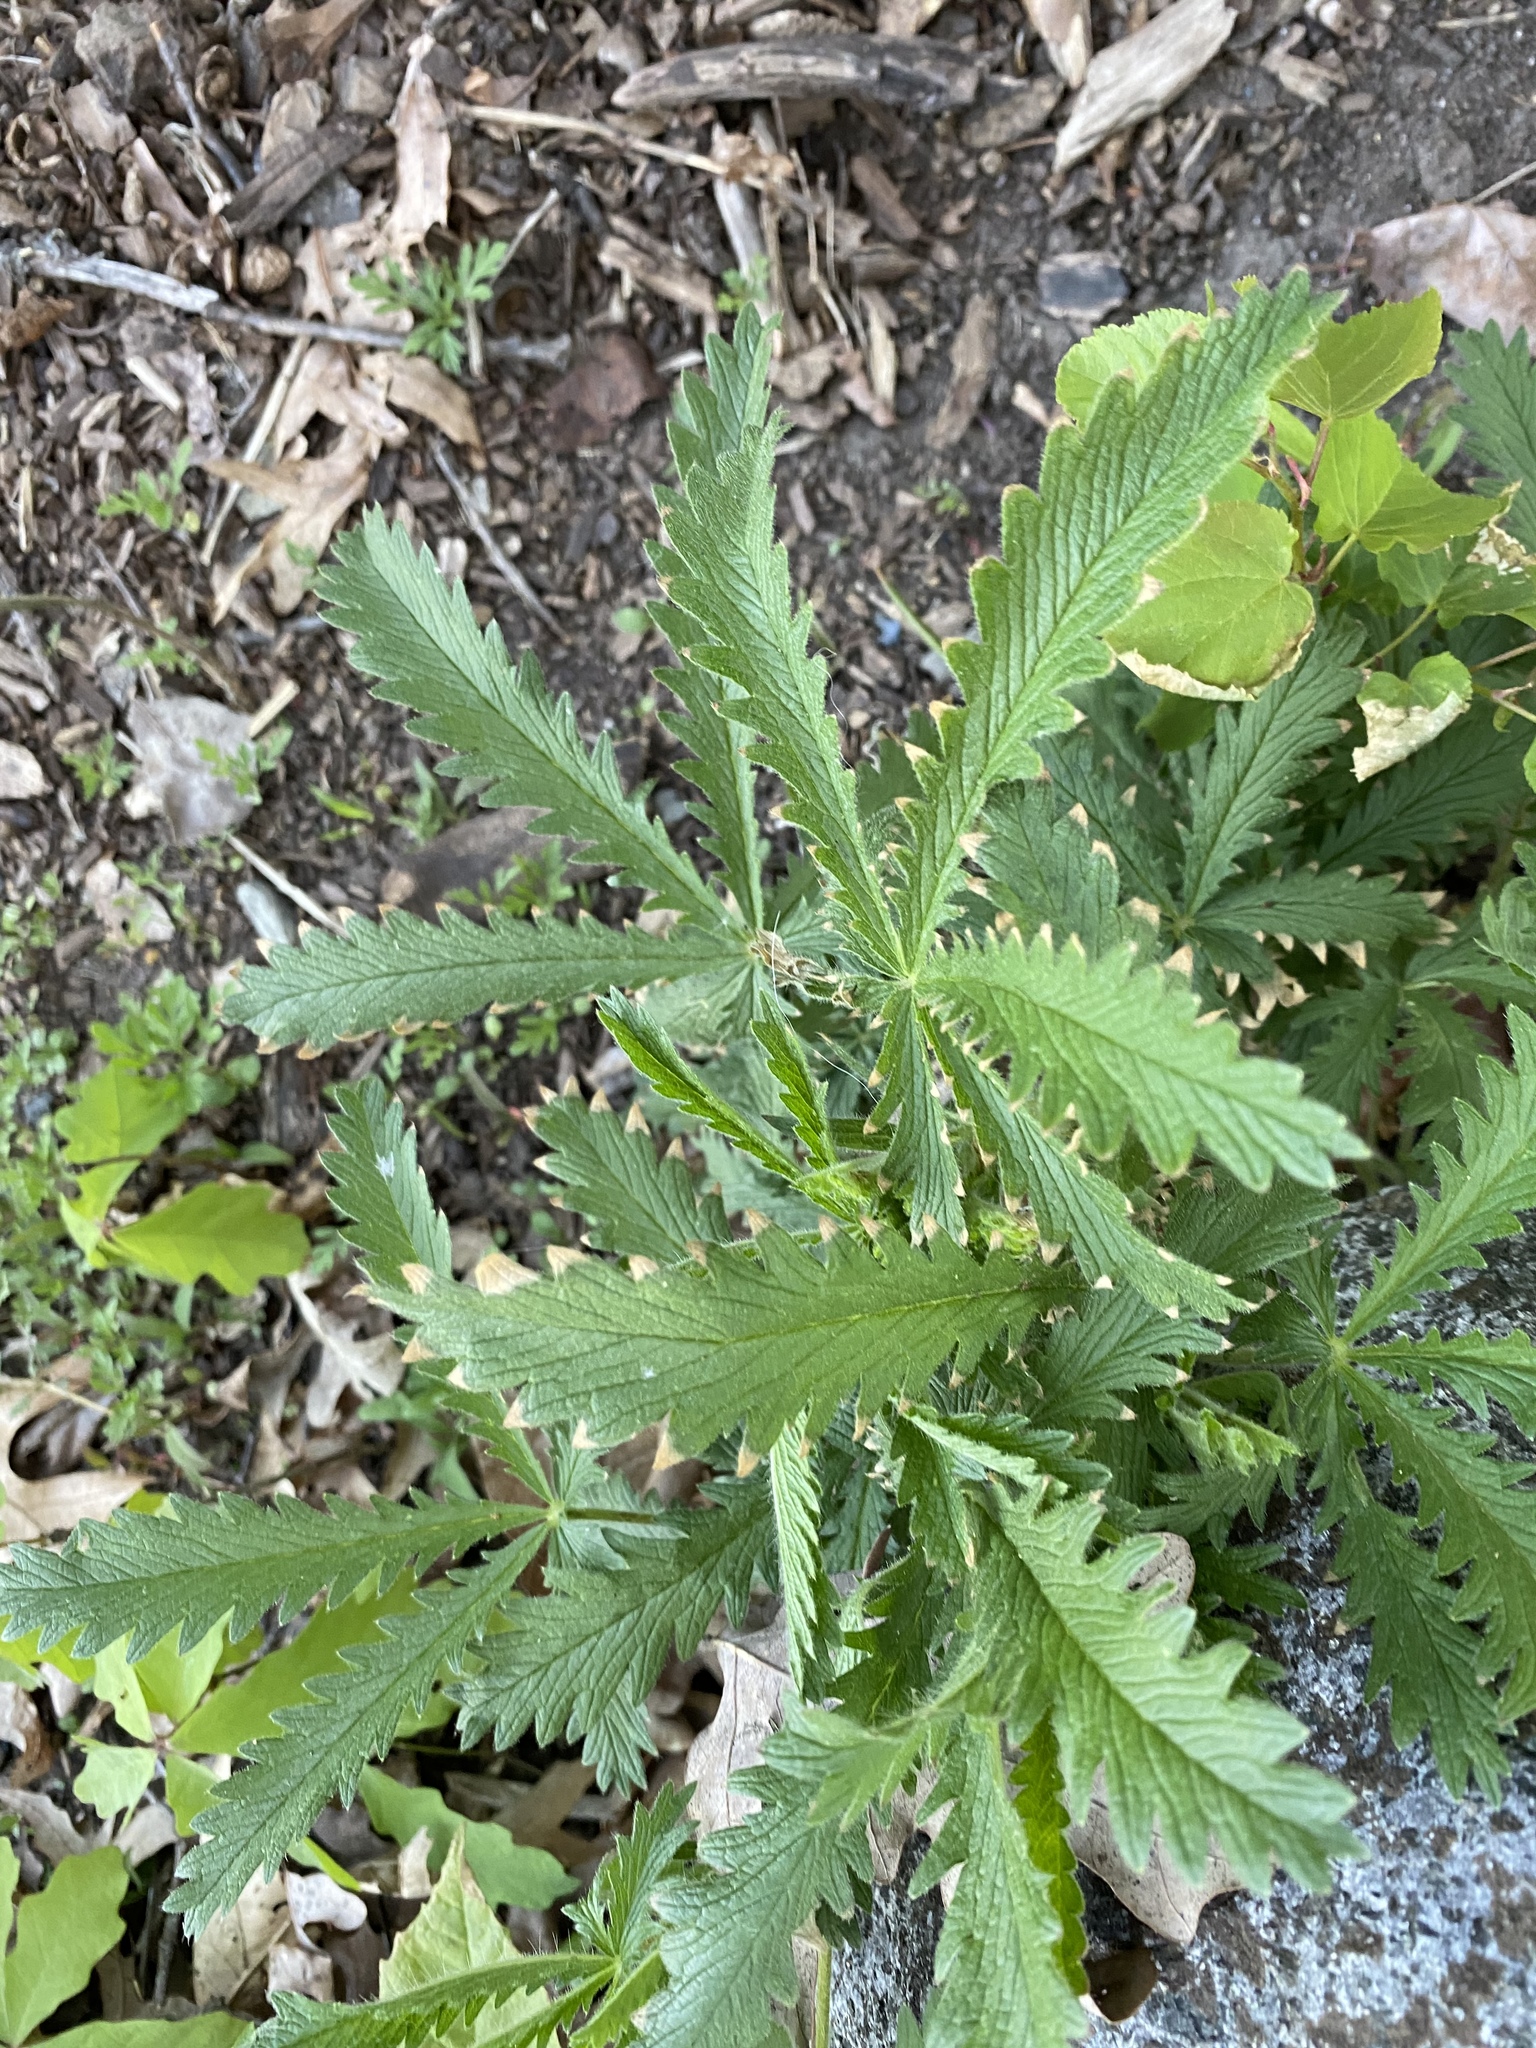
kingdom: Plantae
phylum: Tracheophyta
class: Magnoliopsida
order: Rosales
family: Rosaceae
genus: Potentilla
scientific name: Potentilla recta
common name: Sulphur cinquefoil
